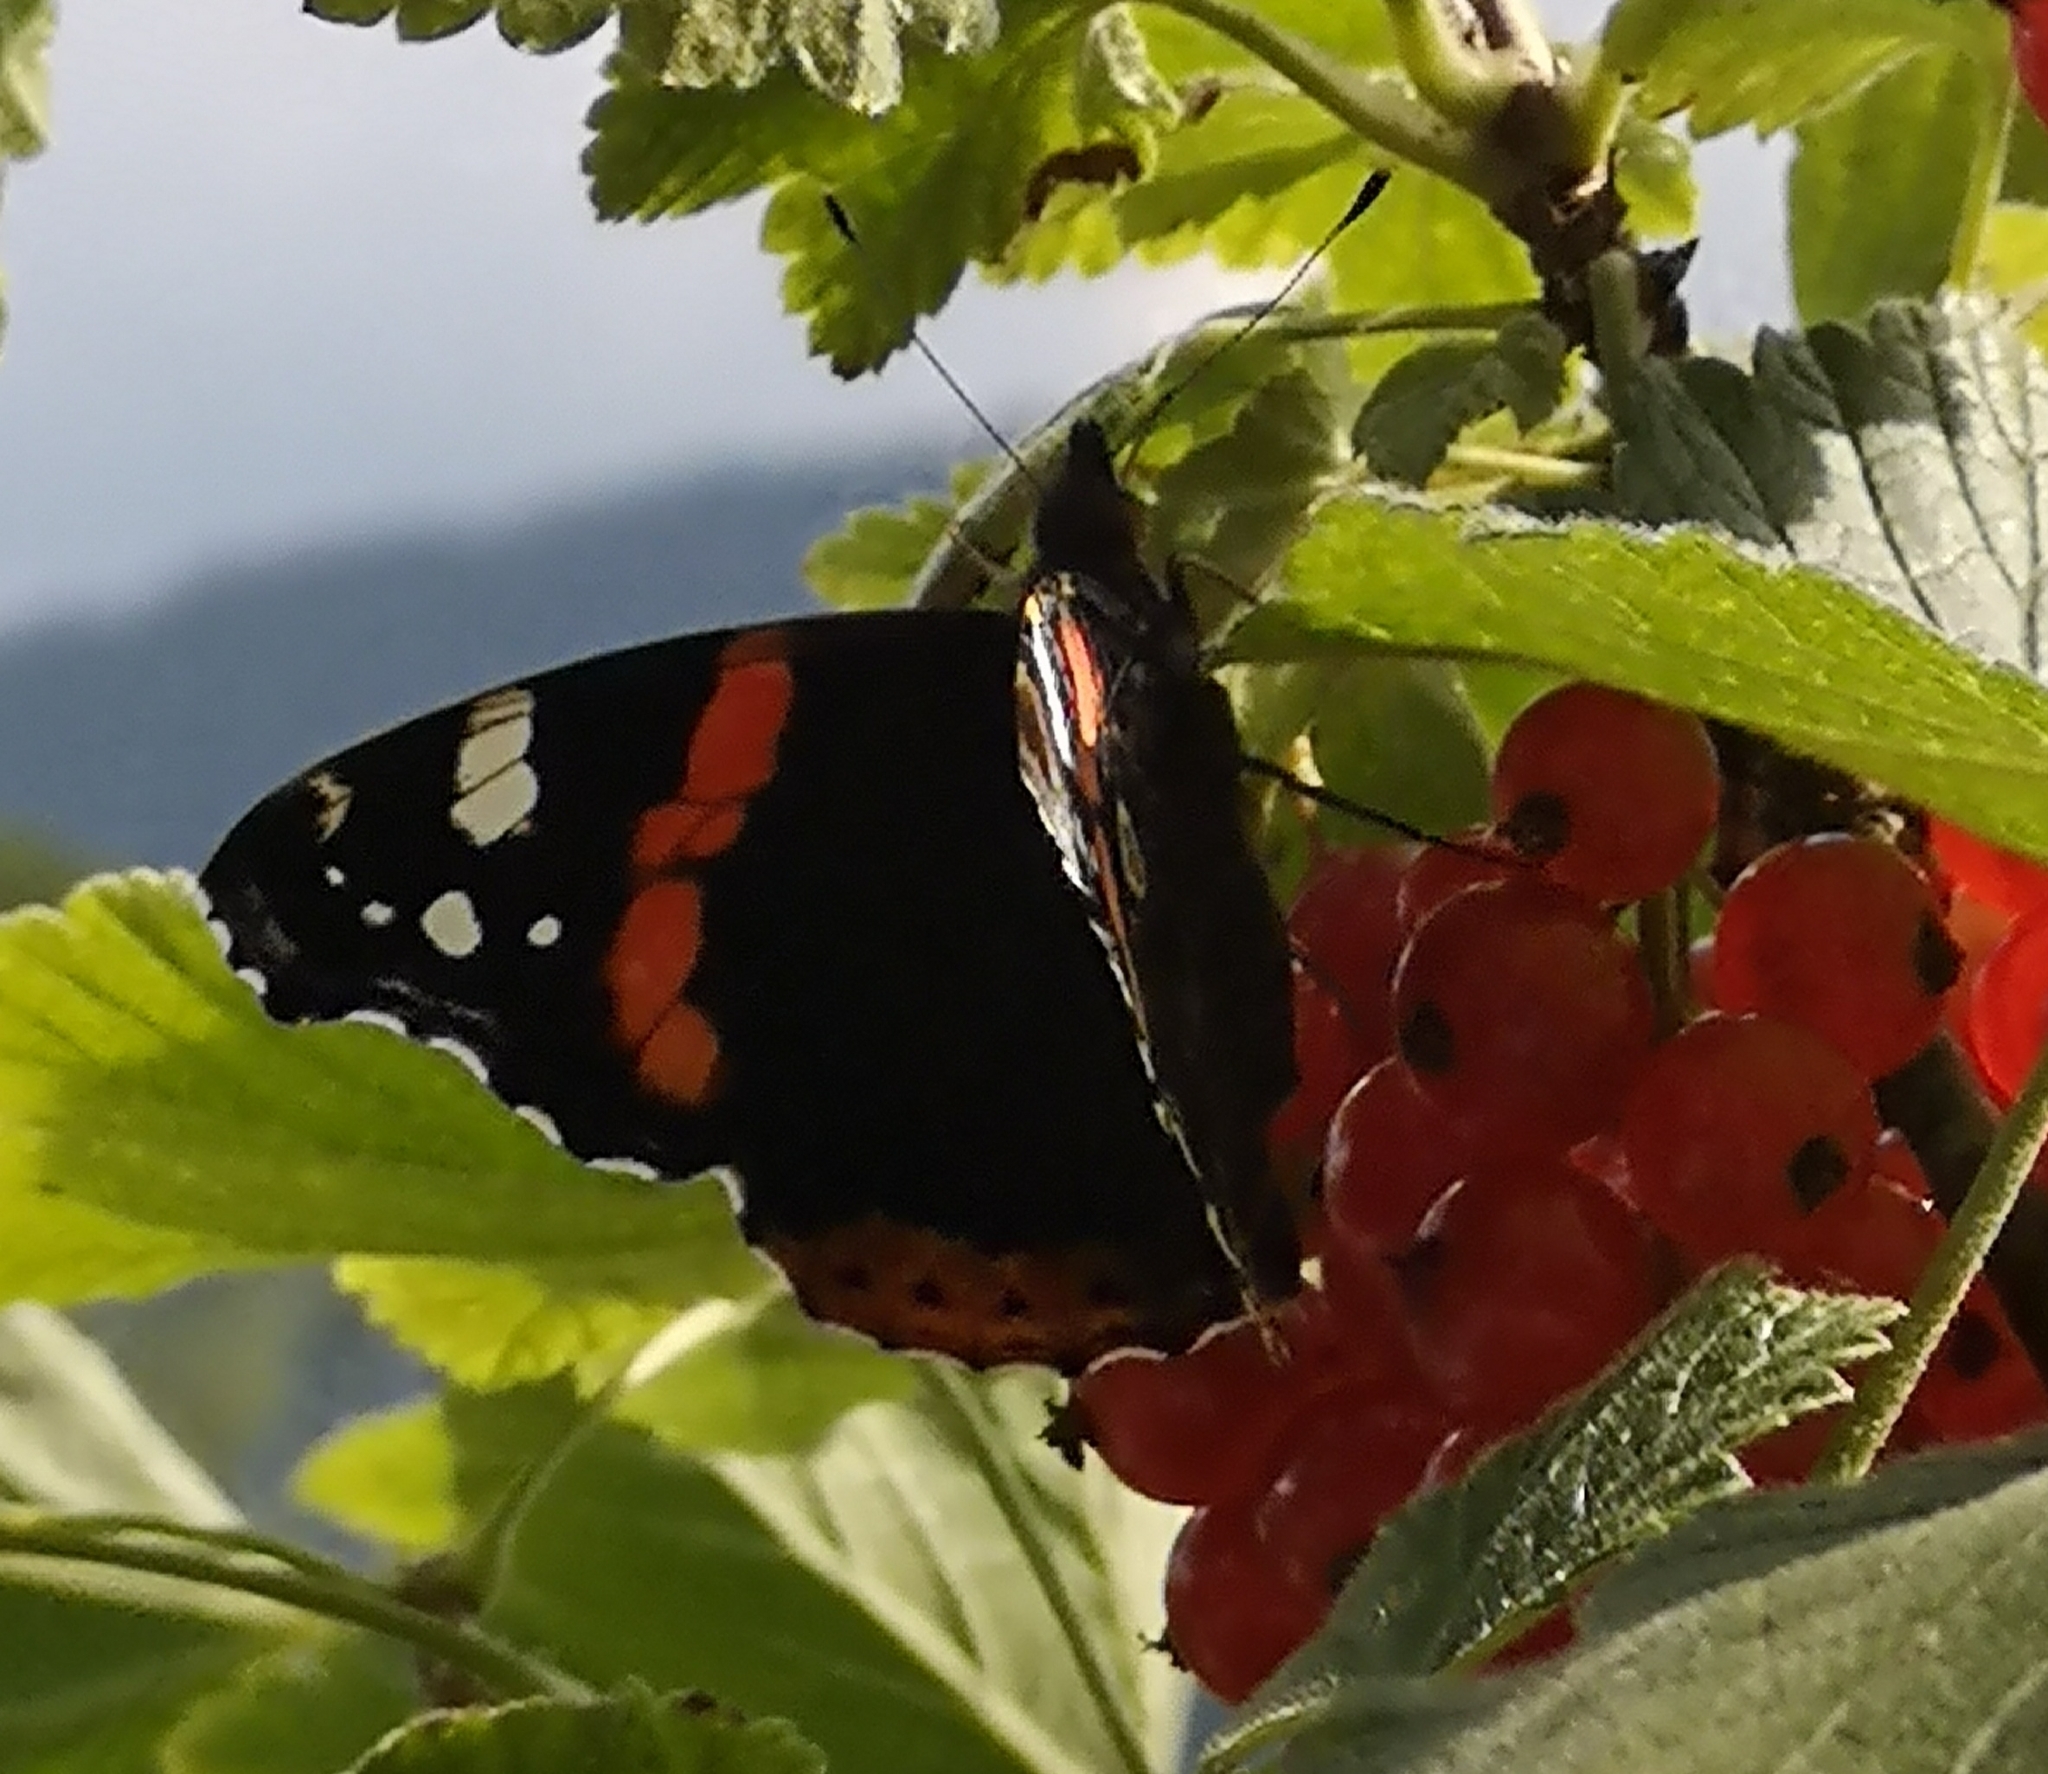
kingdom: Animalia
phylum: Arthropoda
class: Insecta
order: Lepidoptera
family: Nymphalidae
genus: Vanessa
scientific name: Vanessa atalanta
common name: Red admiral
